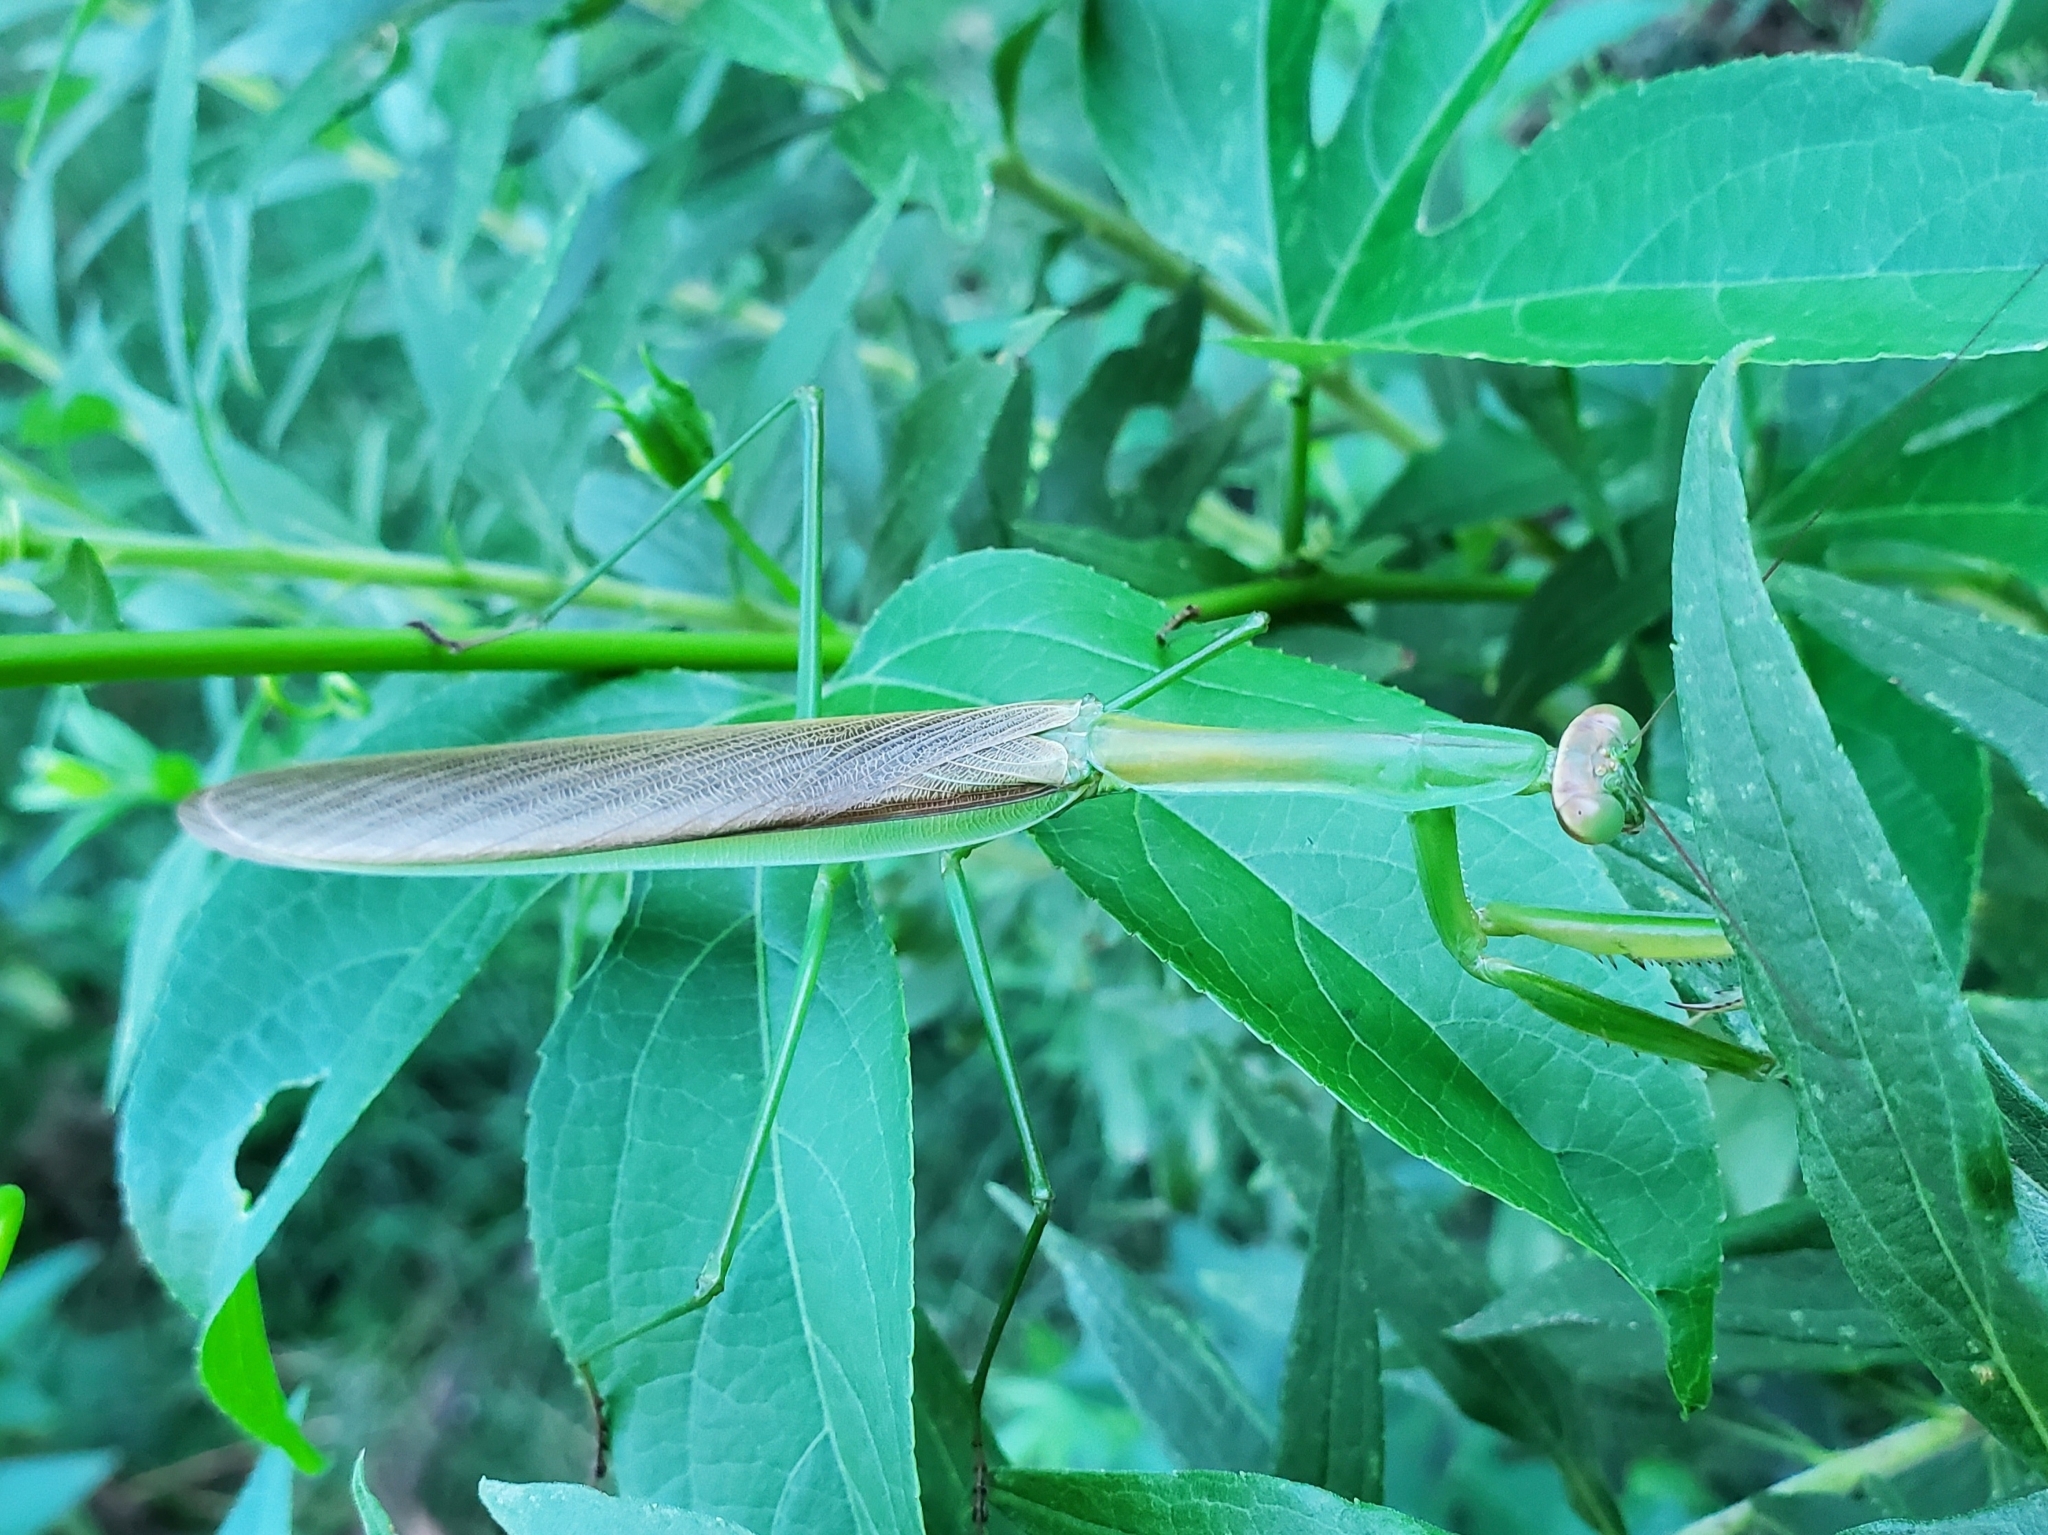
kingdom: Animalia
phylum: Arthropoda
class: Insecta
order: Mantodea
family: Mantidae
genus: Tenodera
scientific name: Tenodera sinensis
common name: Chinese mantis
